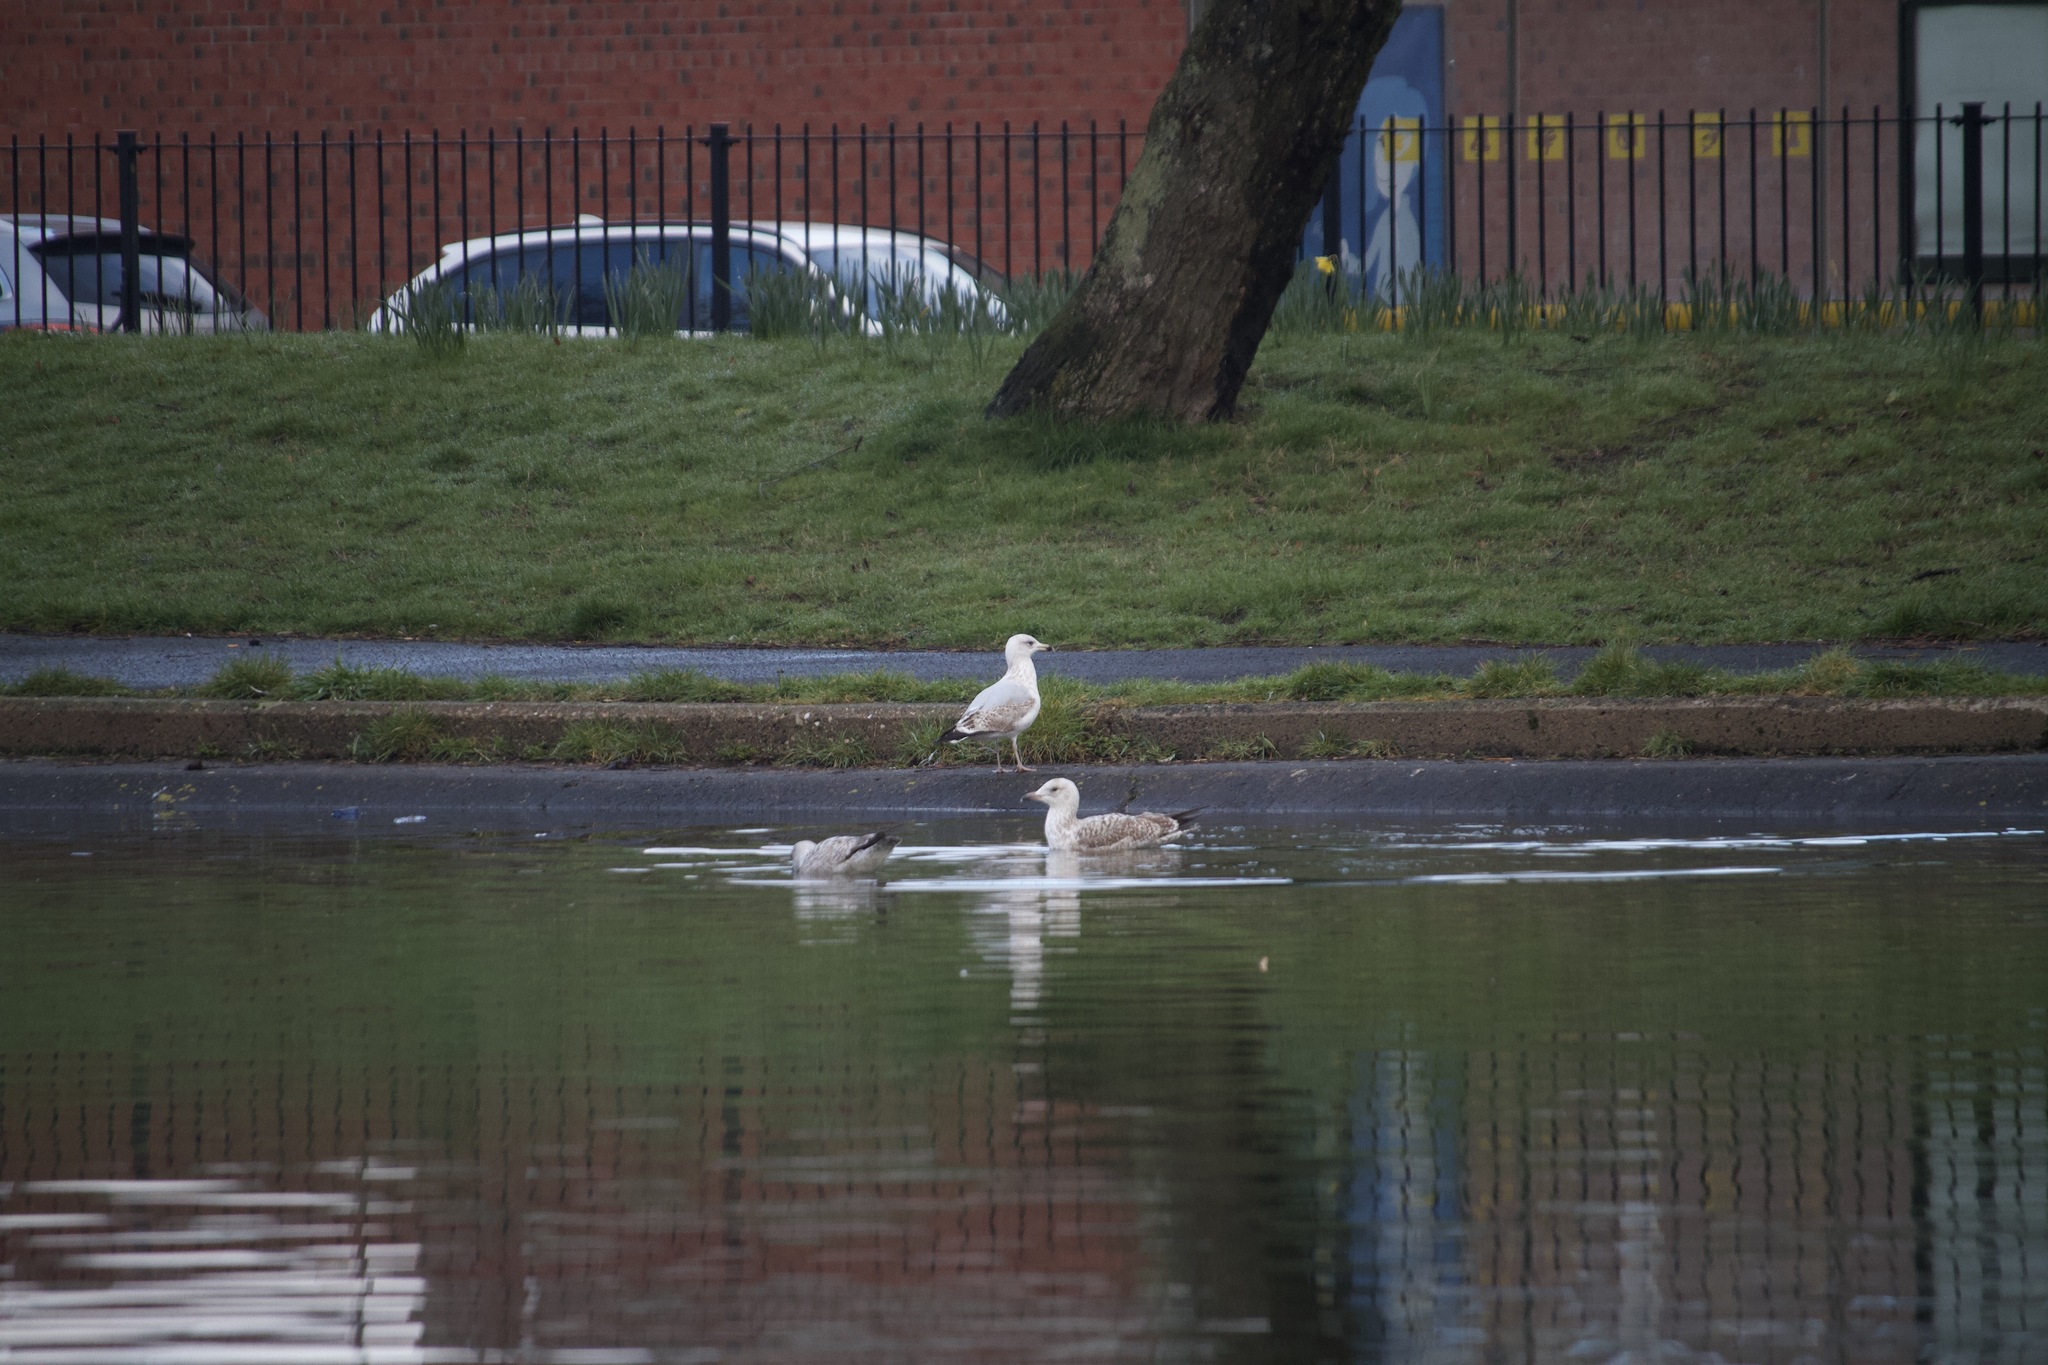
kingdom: Animalia
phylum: Chordata
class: Aves
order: Charadriiformes
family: Laridae
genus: Larus
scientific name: Larus argentatus
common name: Herring gull
